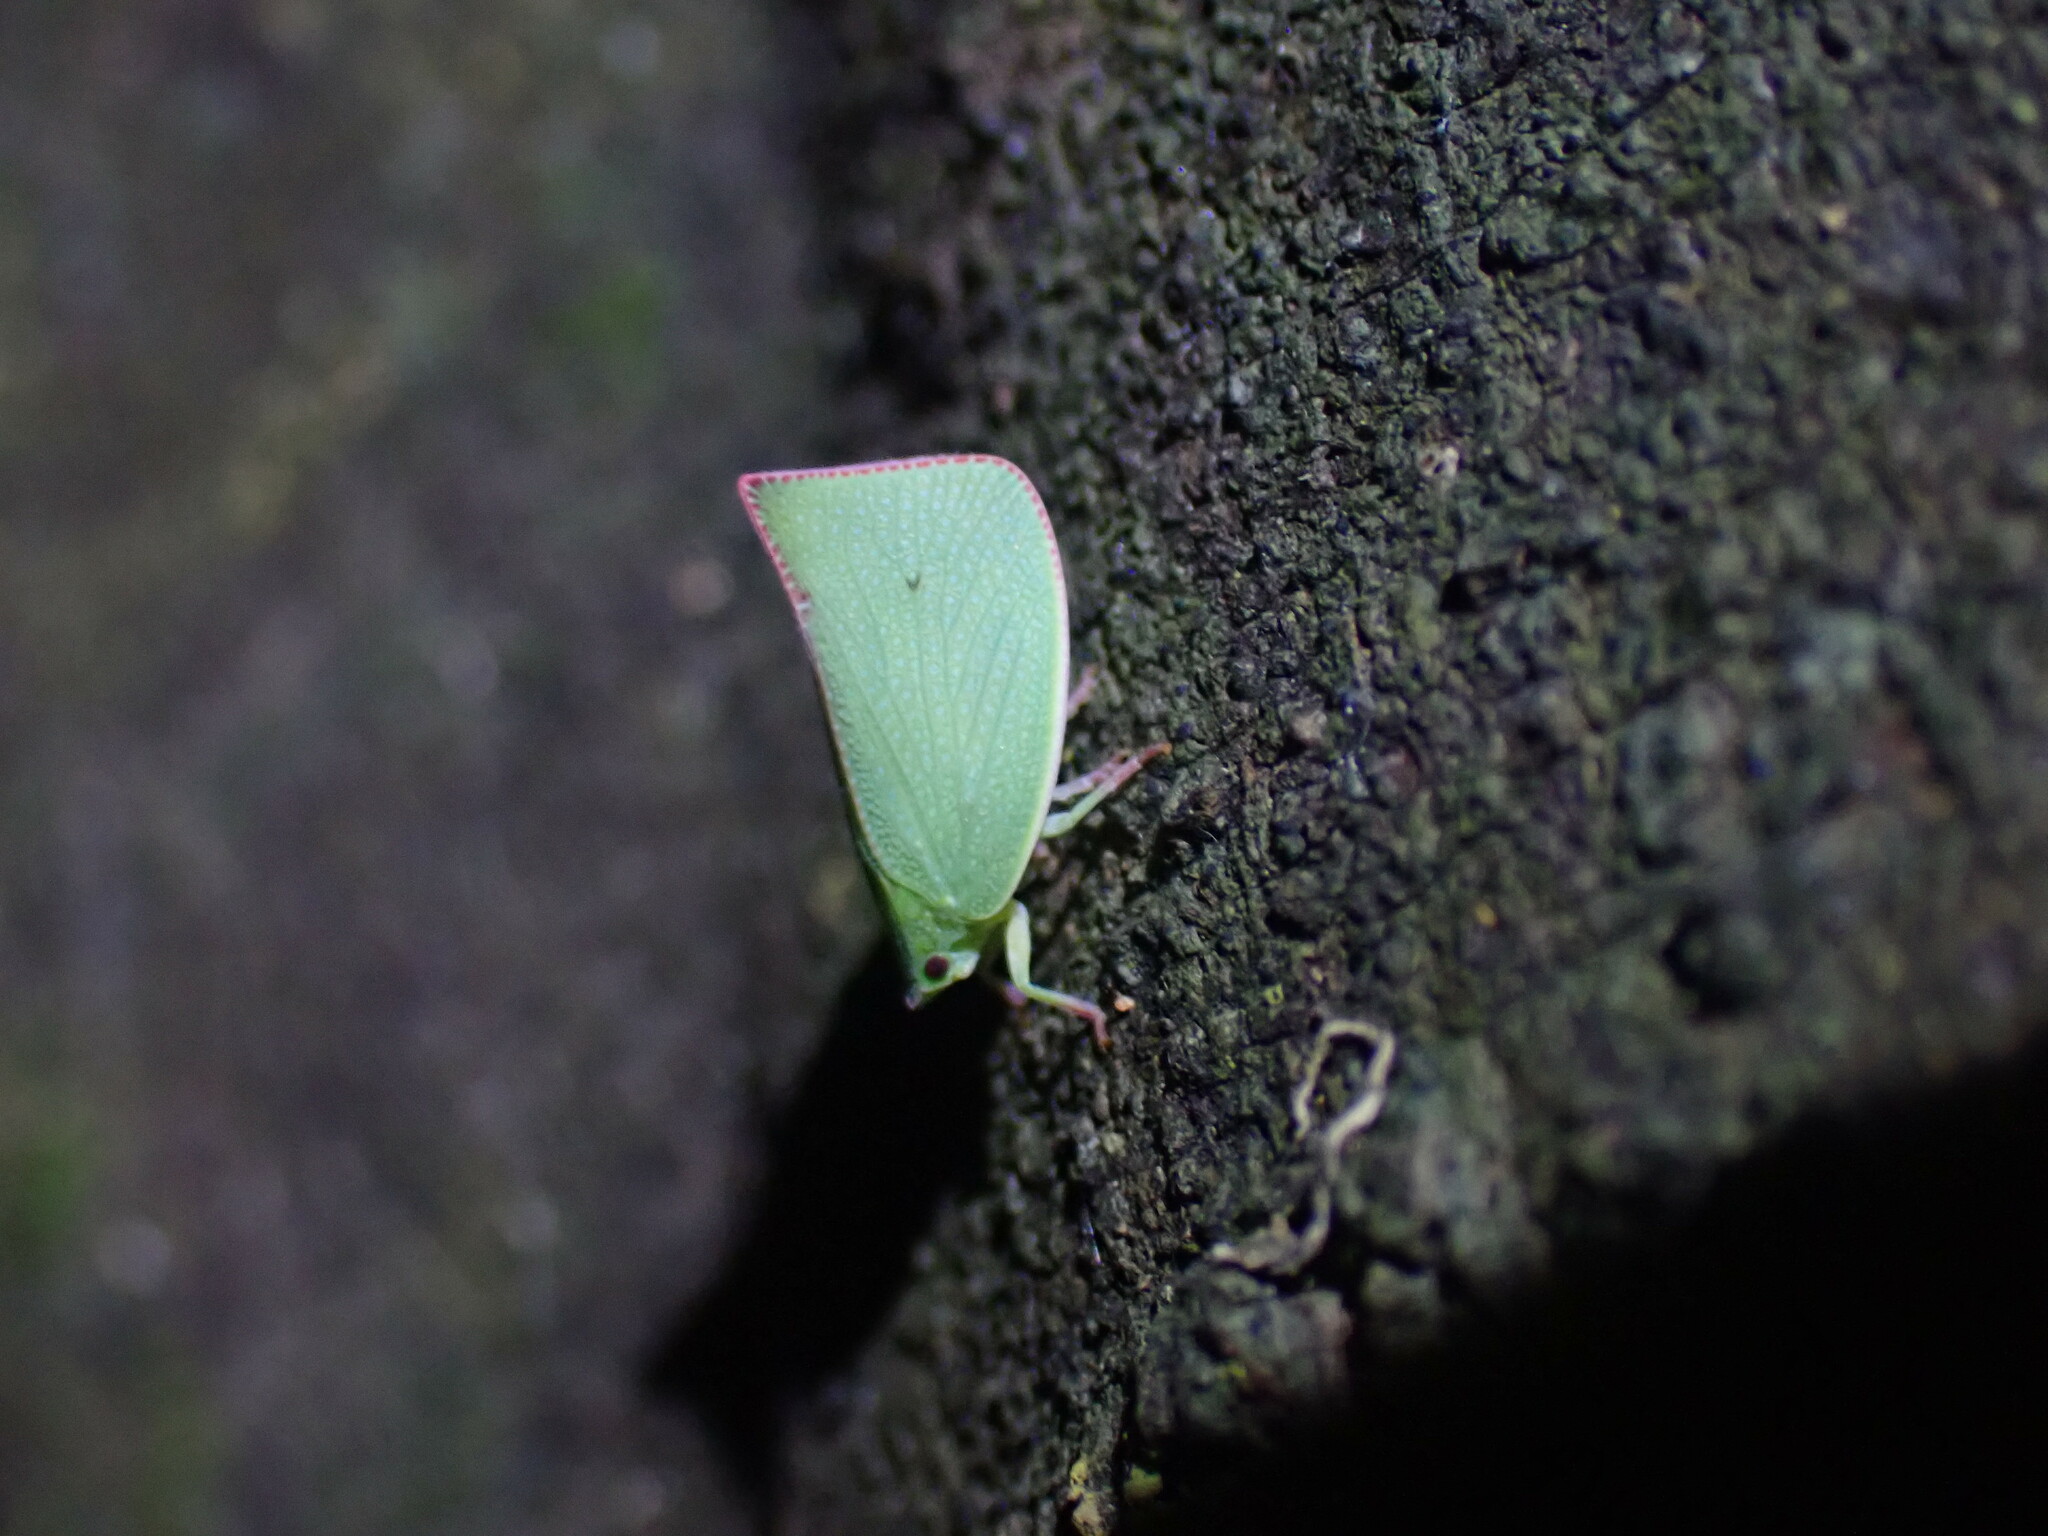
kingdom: Animalia
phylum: Arthropoda
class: Insecta
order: Hemiptera
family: Flatidae
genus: Siphanta
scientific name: Siphanta acuta
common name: Torpedo bug
